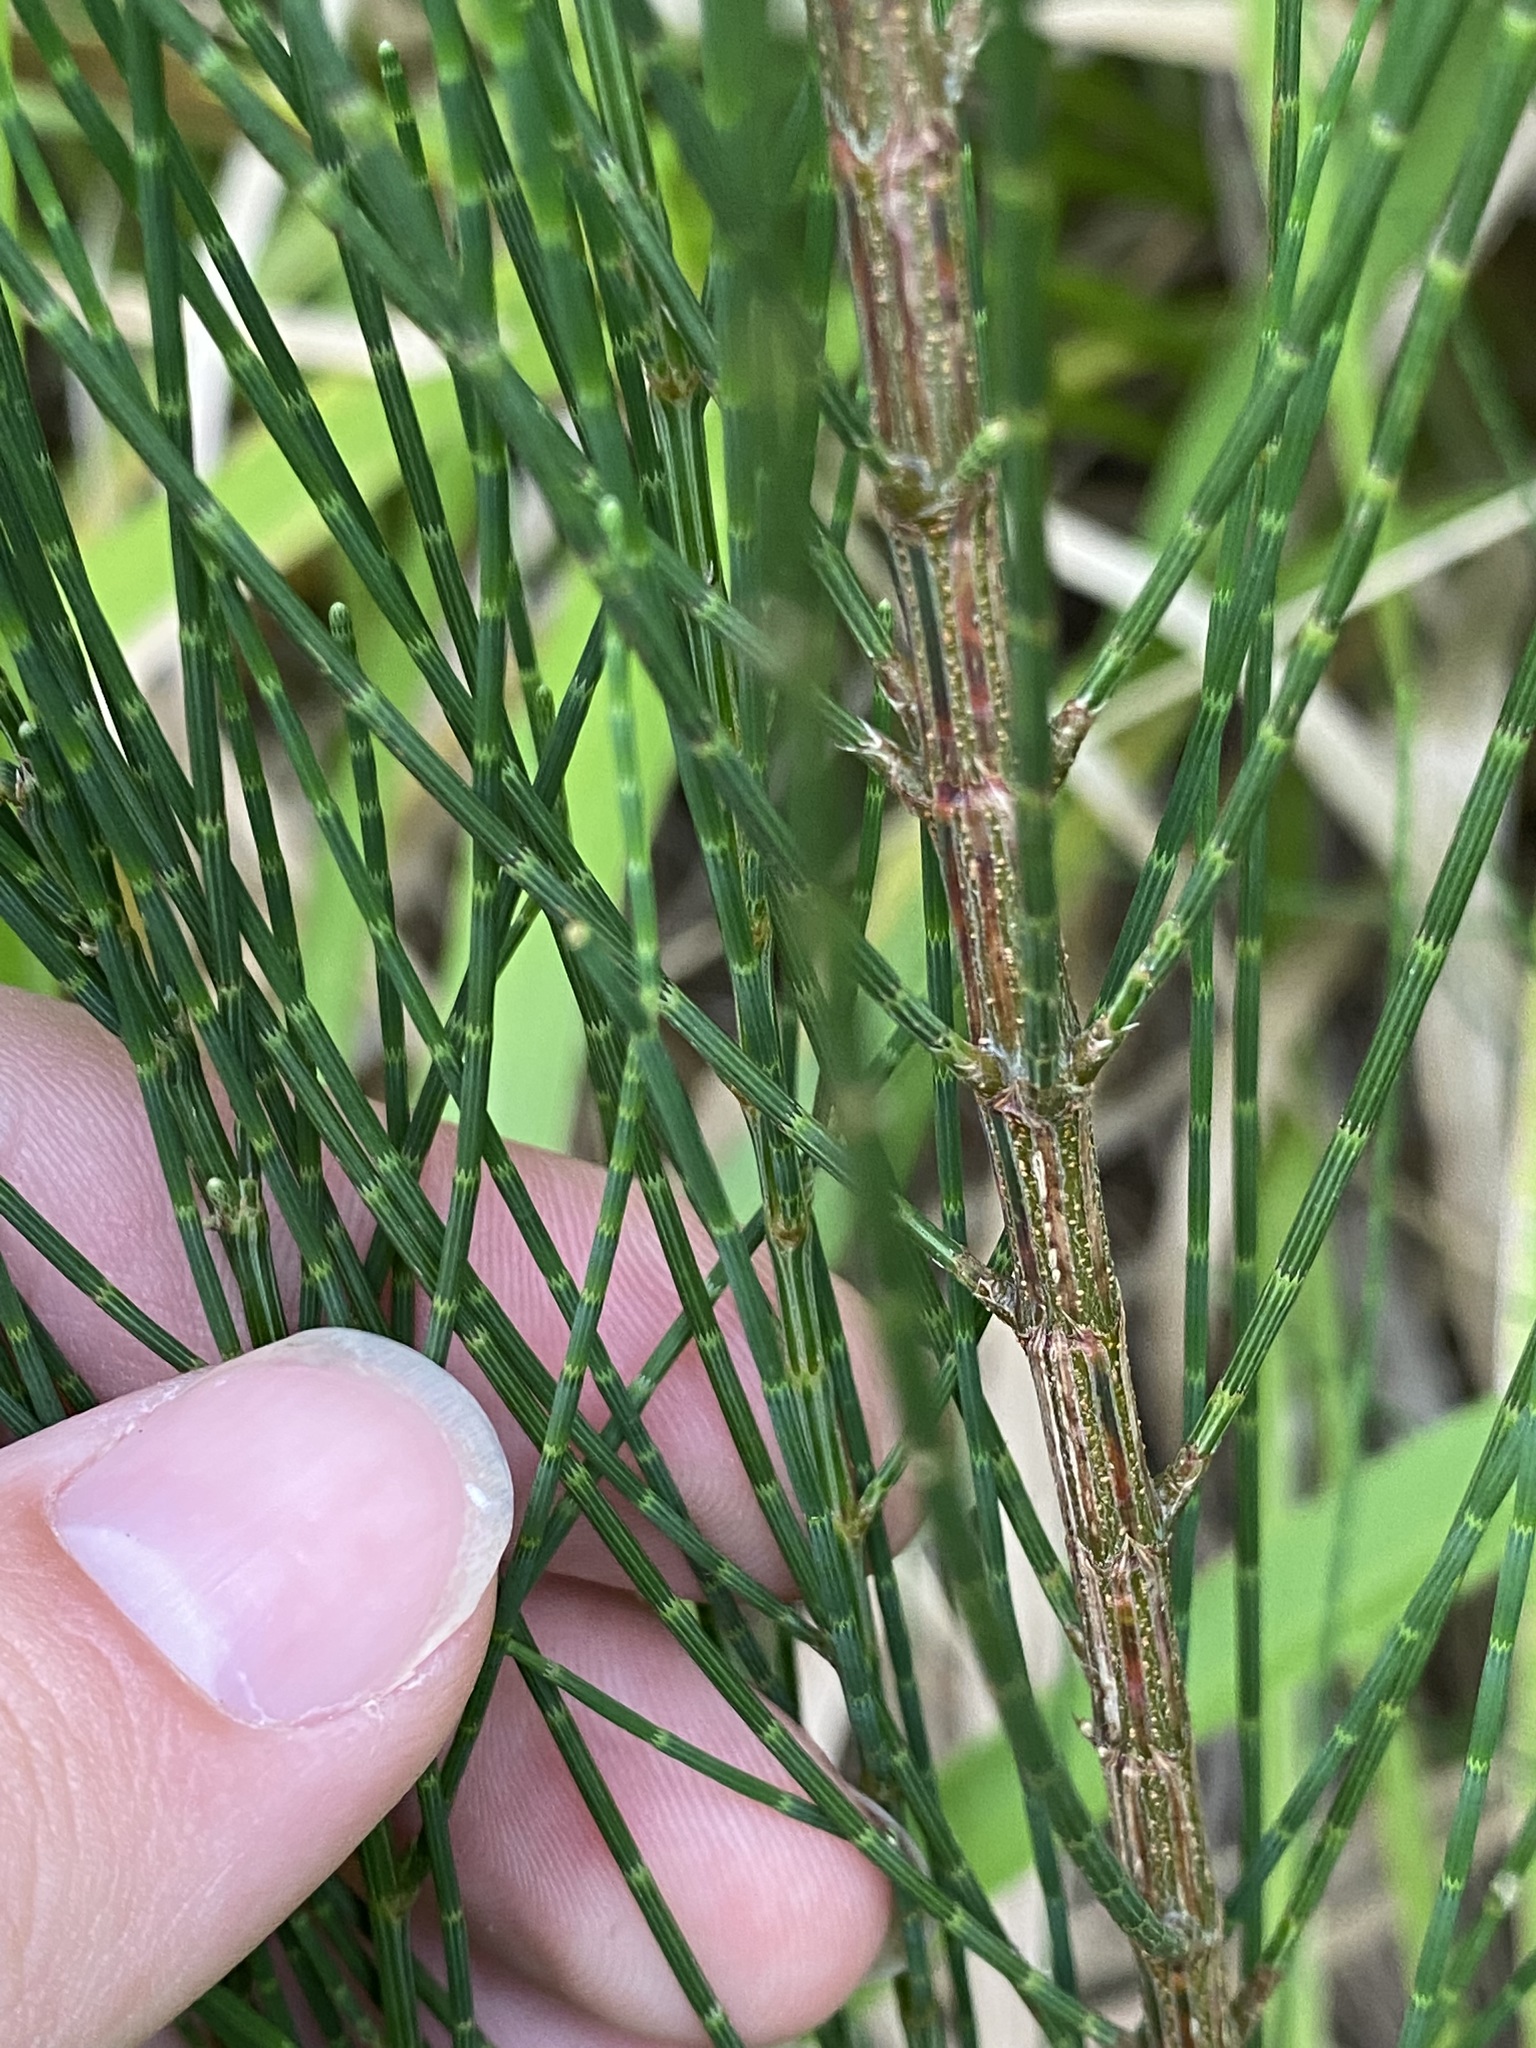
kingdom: Plantae
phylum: Tracheophyta
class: Magnoliopsida
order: Fagales
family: Casuarinaceae
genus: Casuarina
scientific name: Casuarina equisetifolia
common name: Beach sheoak
